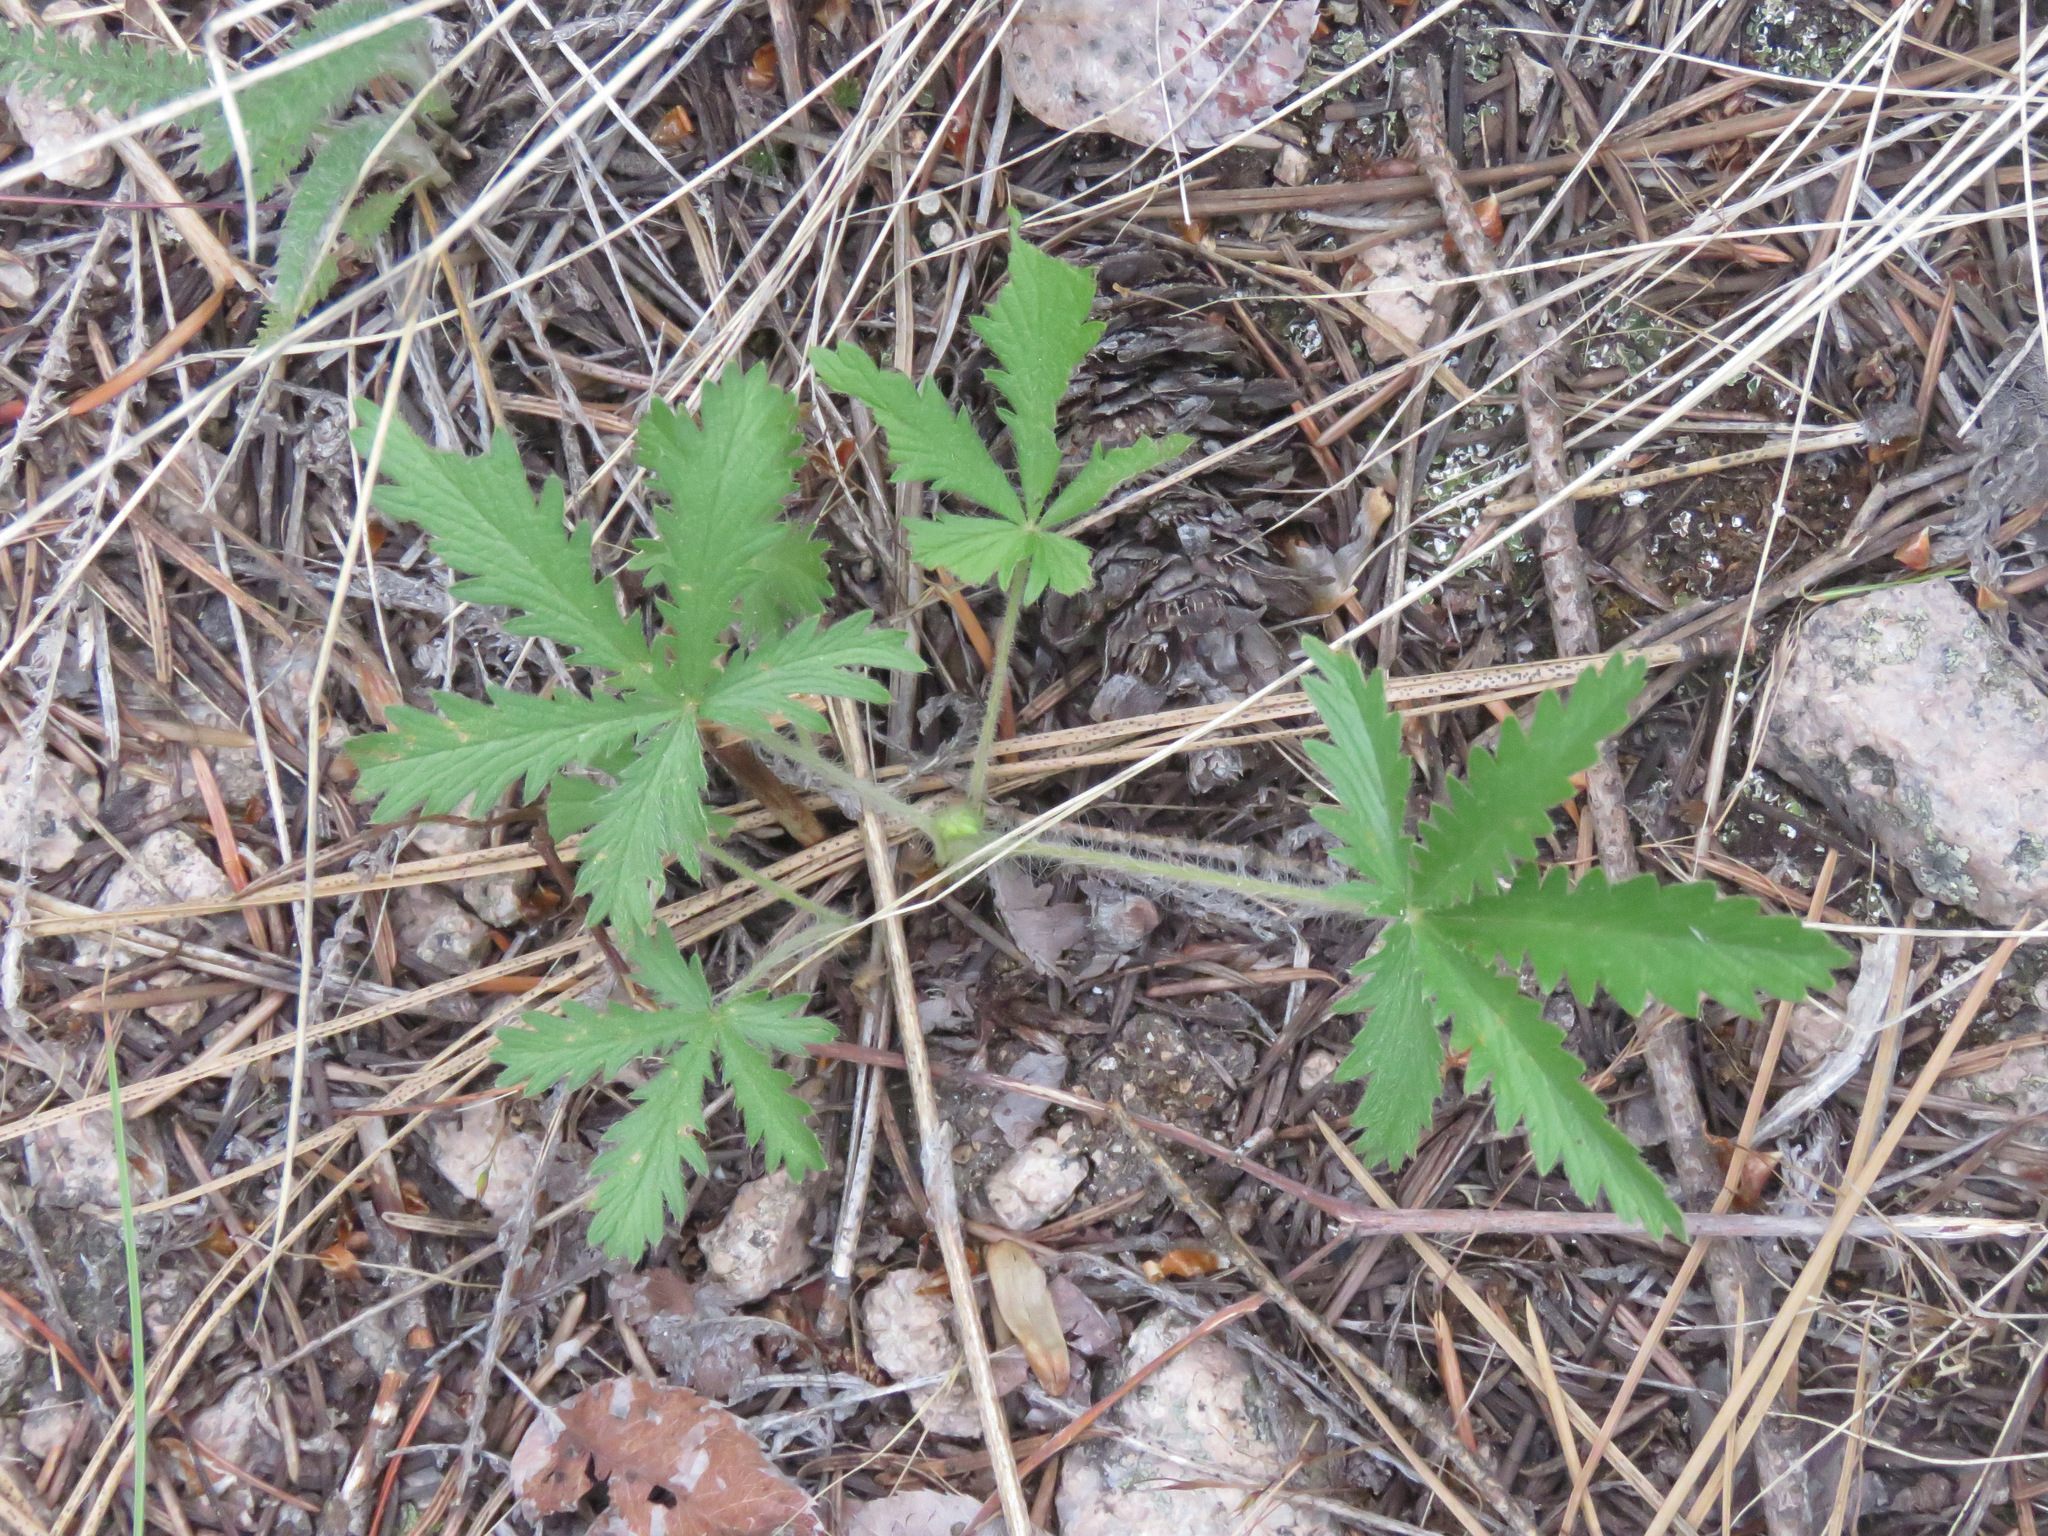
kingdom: Plantae
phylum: Tracheophyta
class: Magnoliopsida
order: Rosales
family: Rosaceae
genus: Potentilla
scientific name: Potentilla recta
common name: Sulphur cinquefoil
